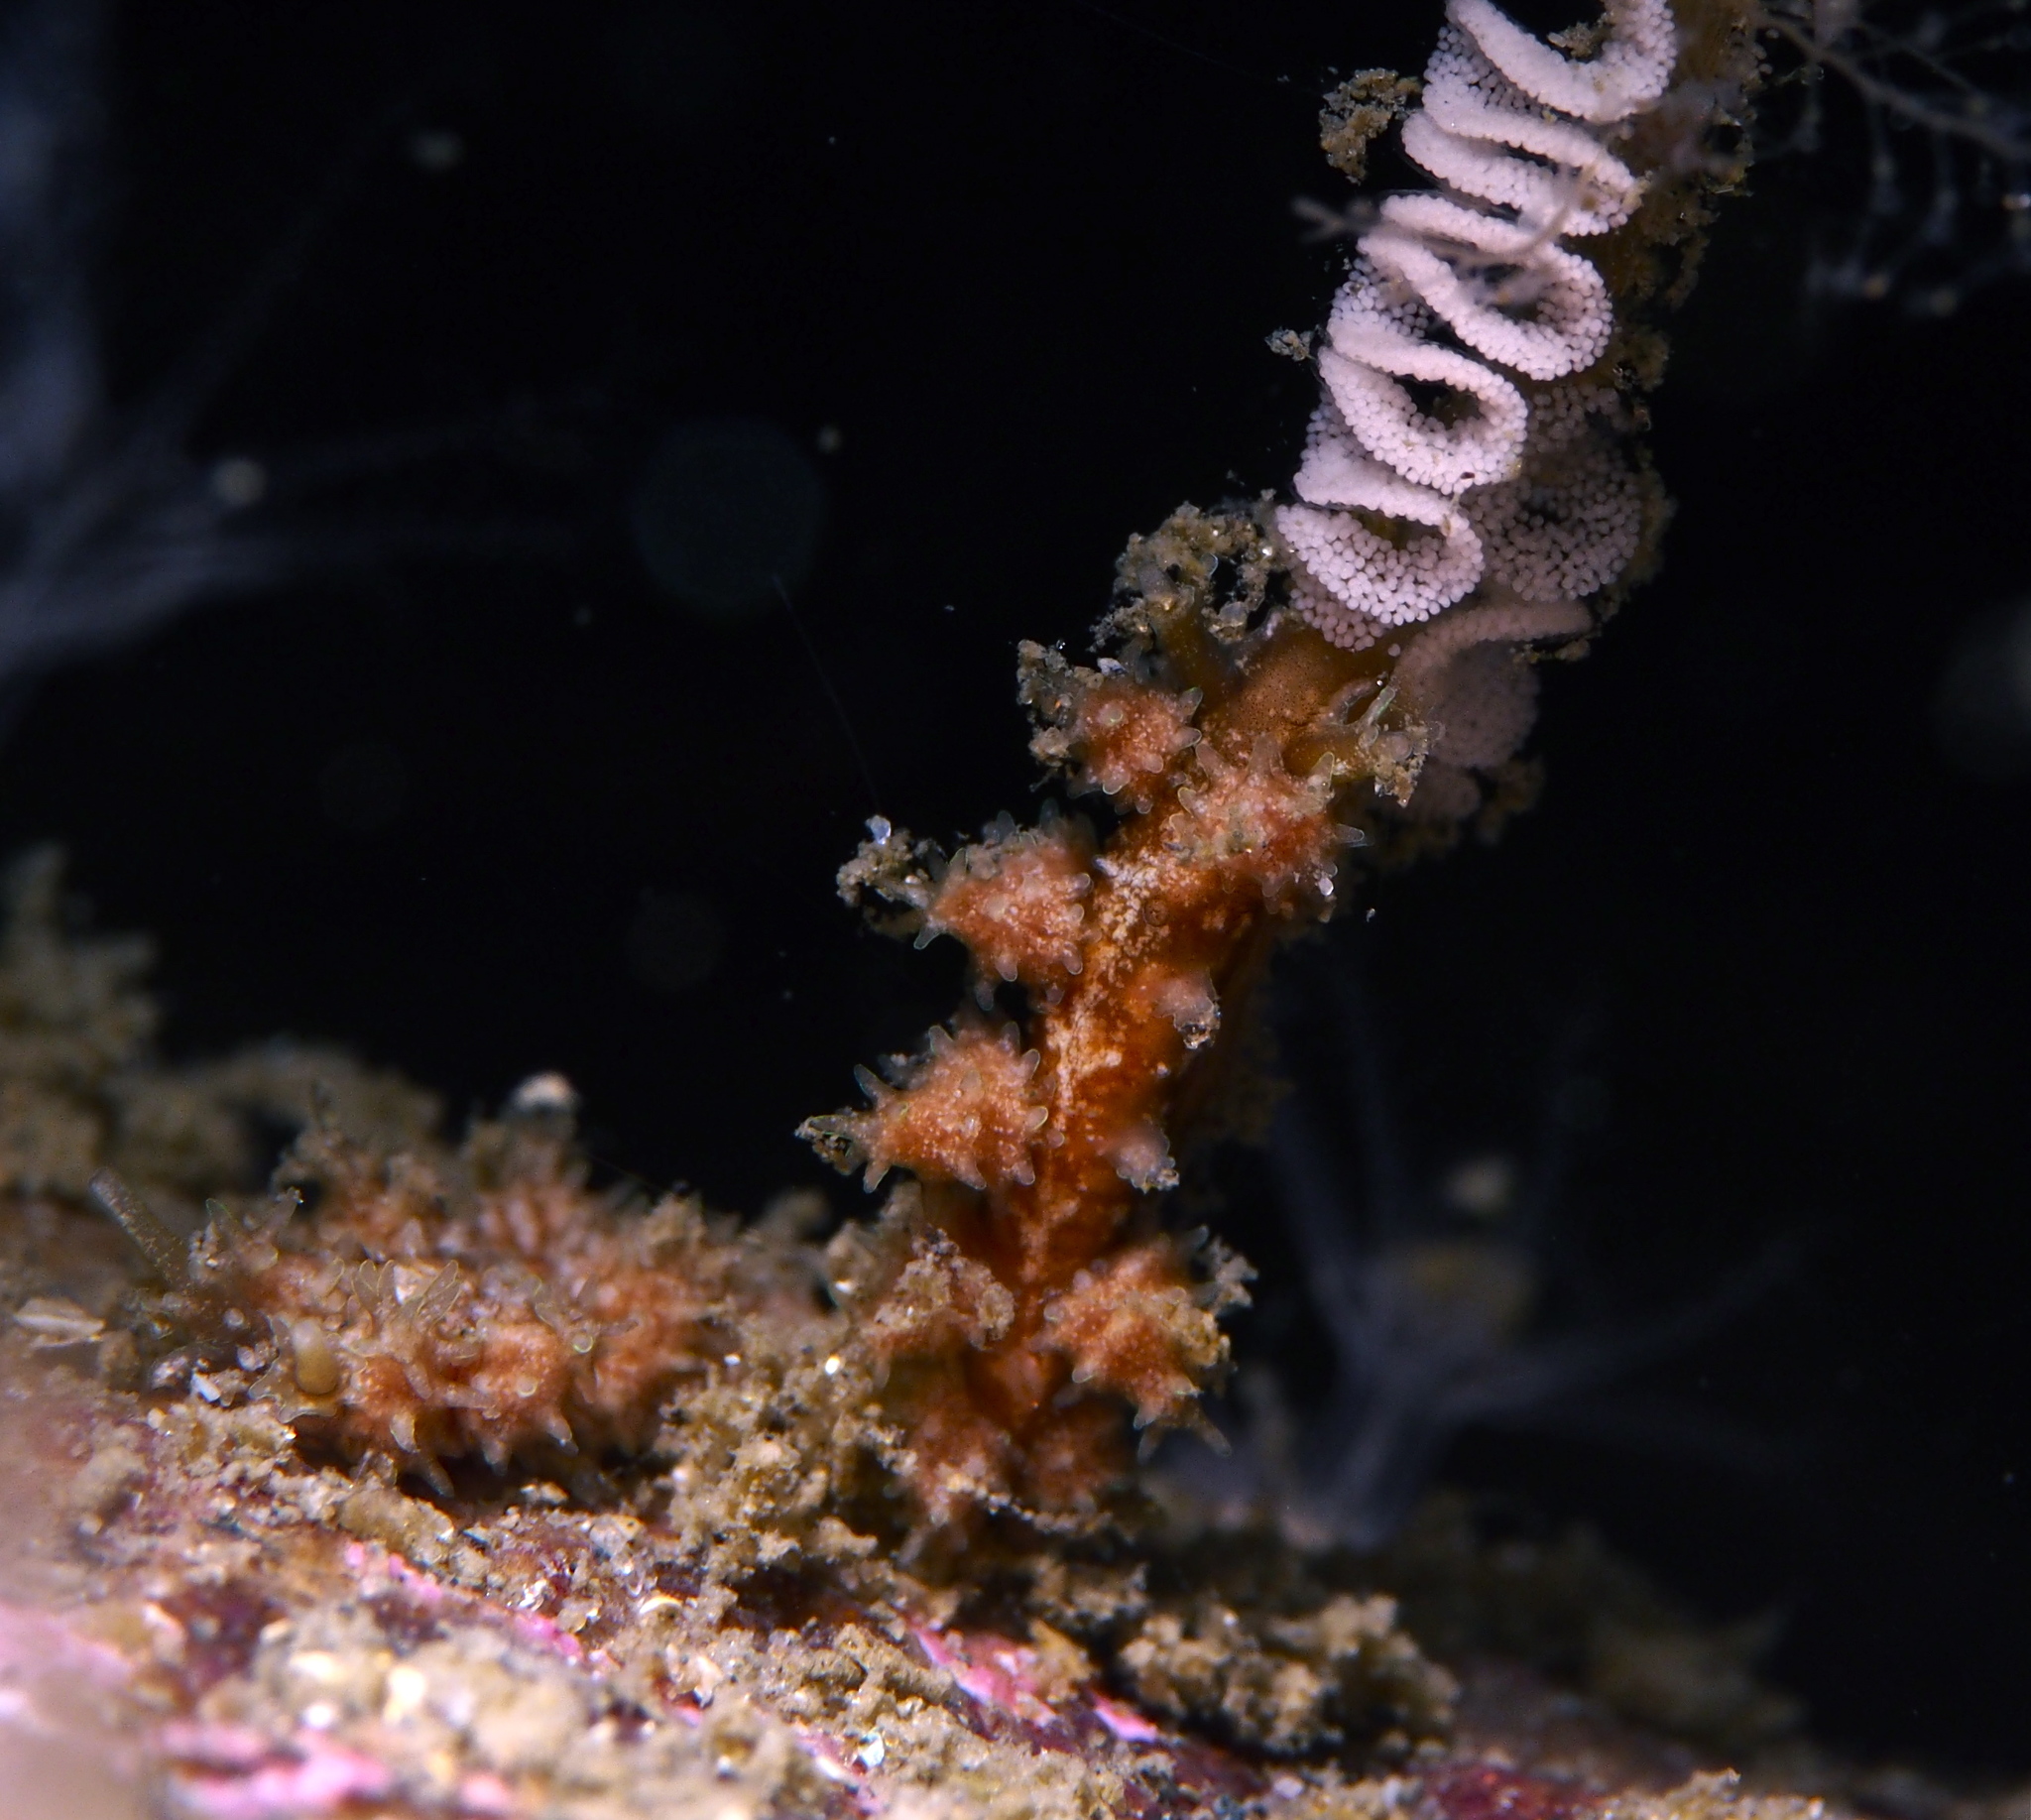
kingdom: Animalia
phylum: Mollusca
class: Gastropoda
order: Nudibranchia
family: Dotidae
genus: Doto
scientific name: Doto hystrix
